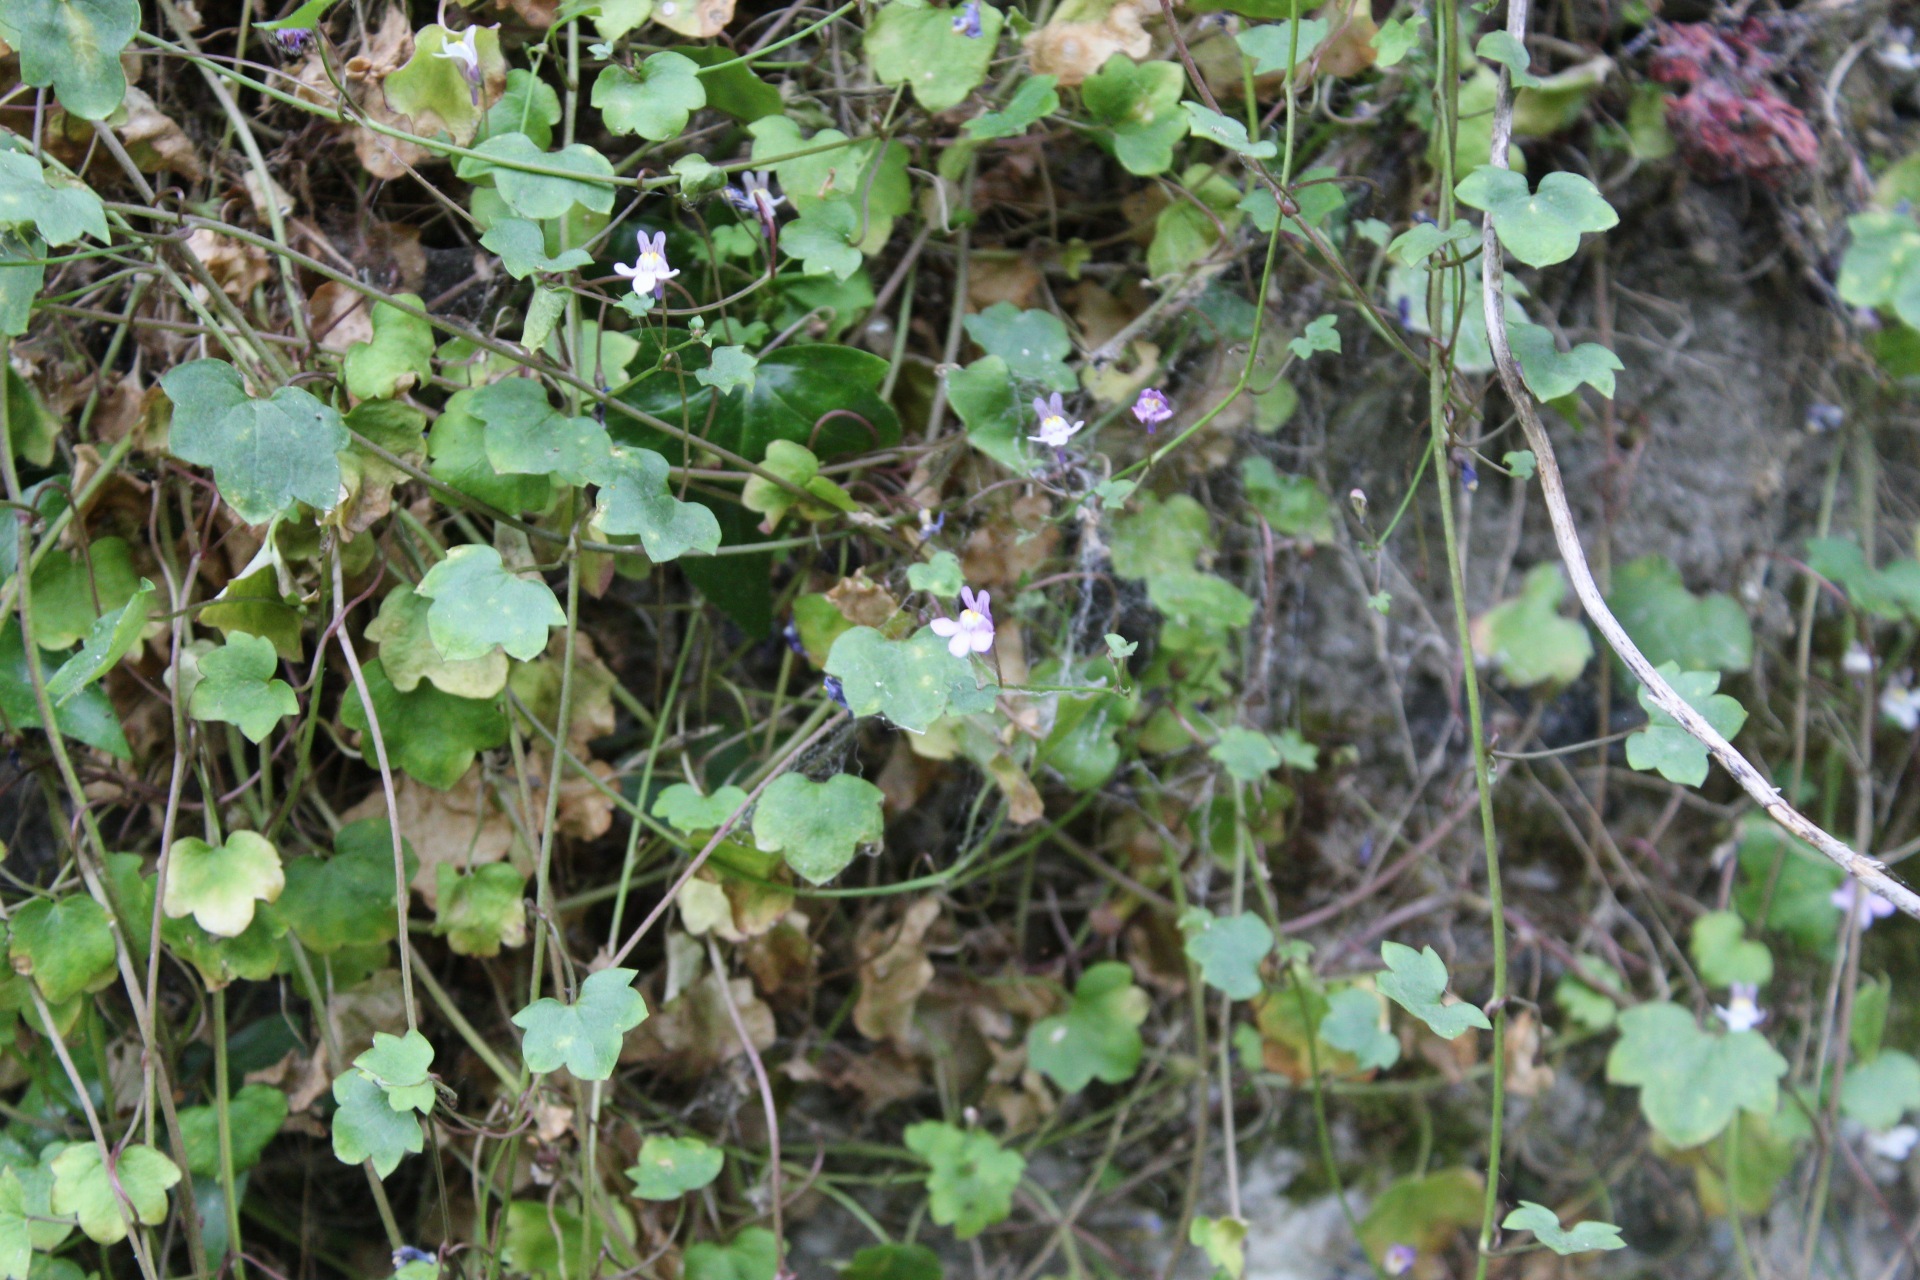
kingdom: Plantae
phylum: Tracheophyta
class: Magnoliopsida
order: Lamiales
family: Plantaginaceae
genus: Cymbalaria
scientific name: Cymbalaria muralis
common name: Ivy-leaved toadflax
